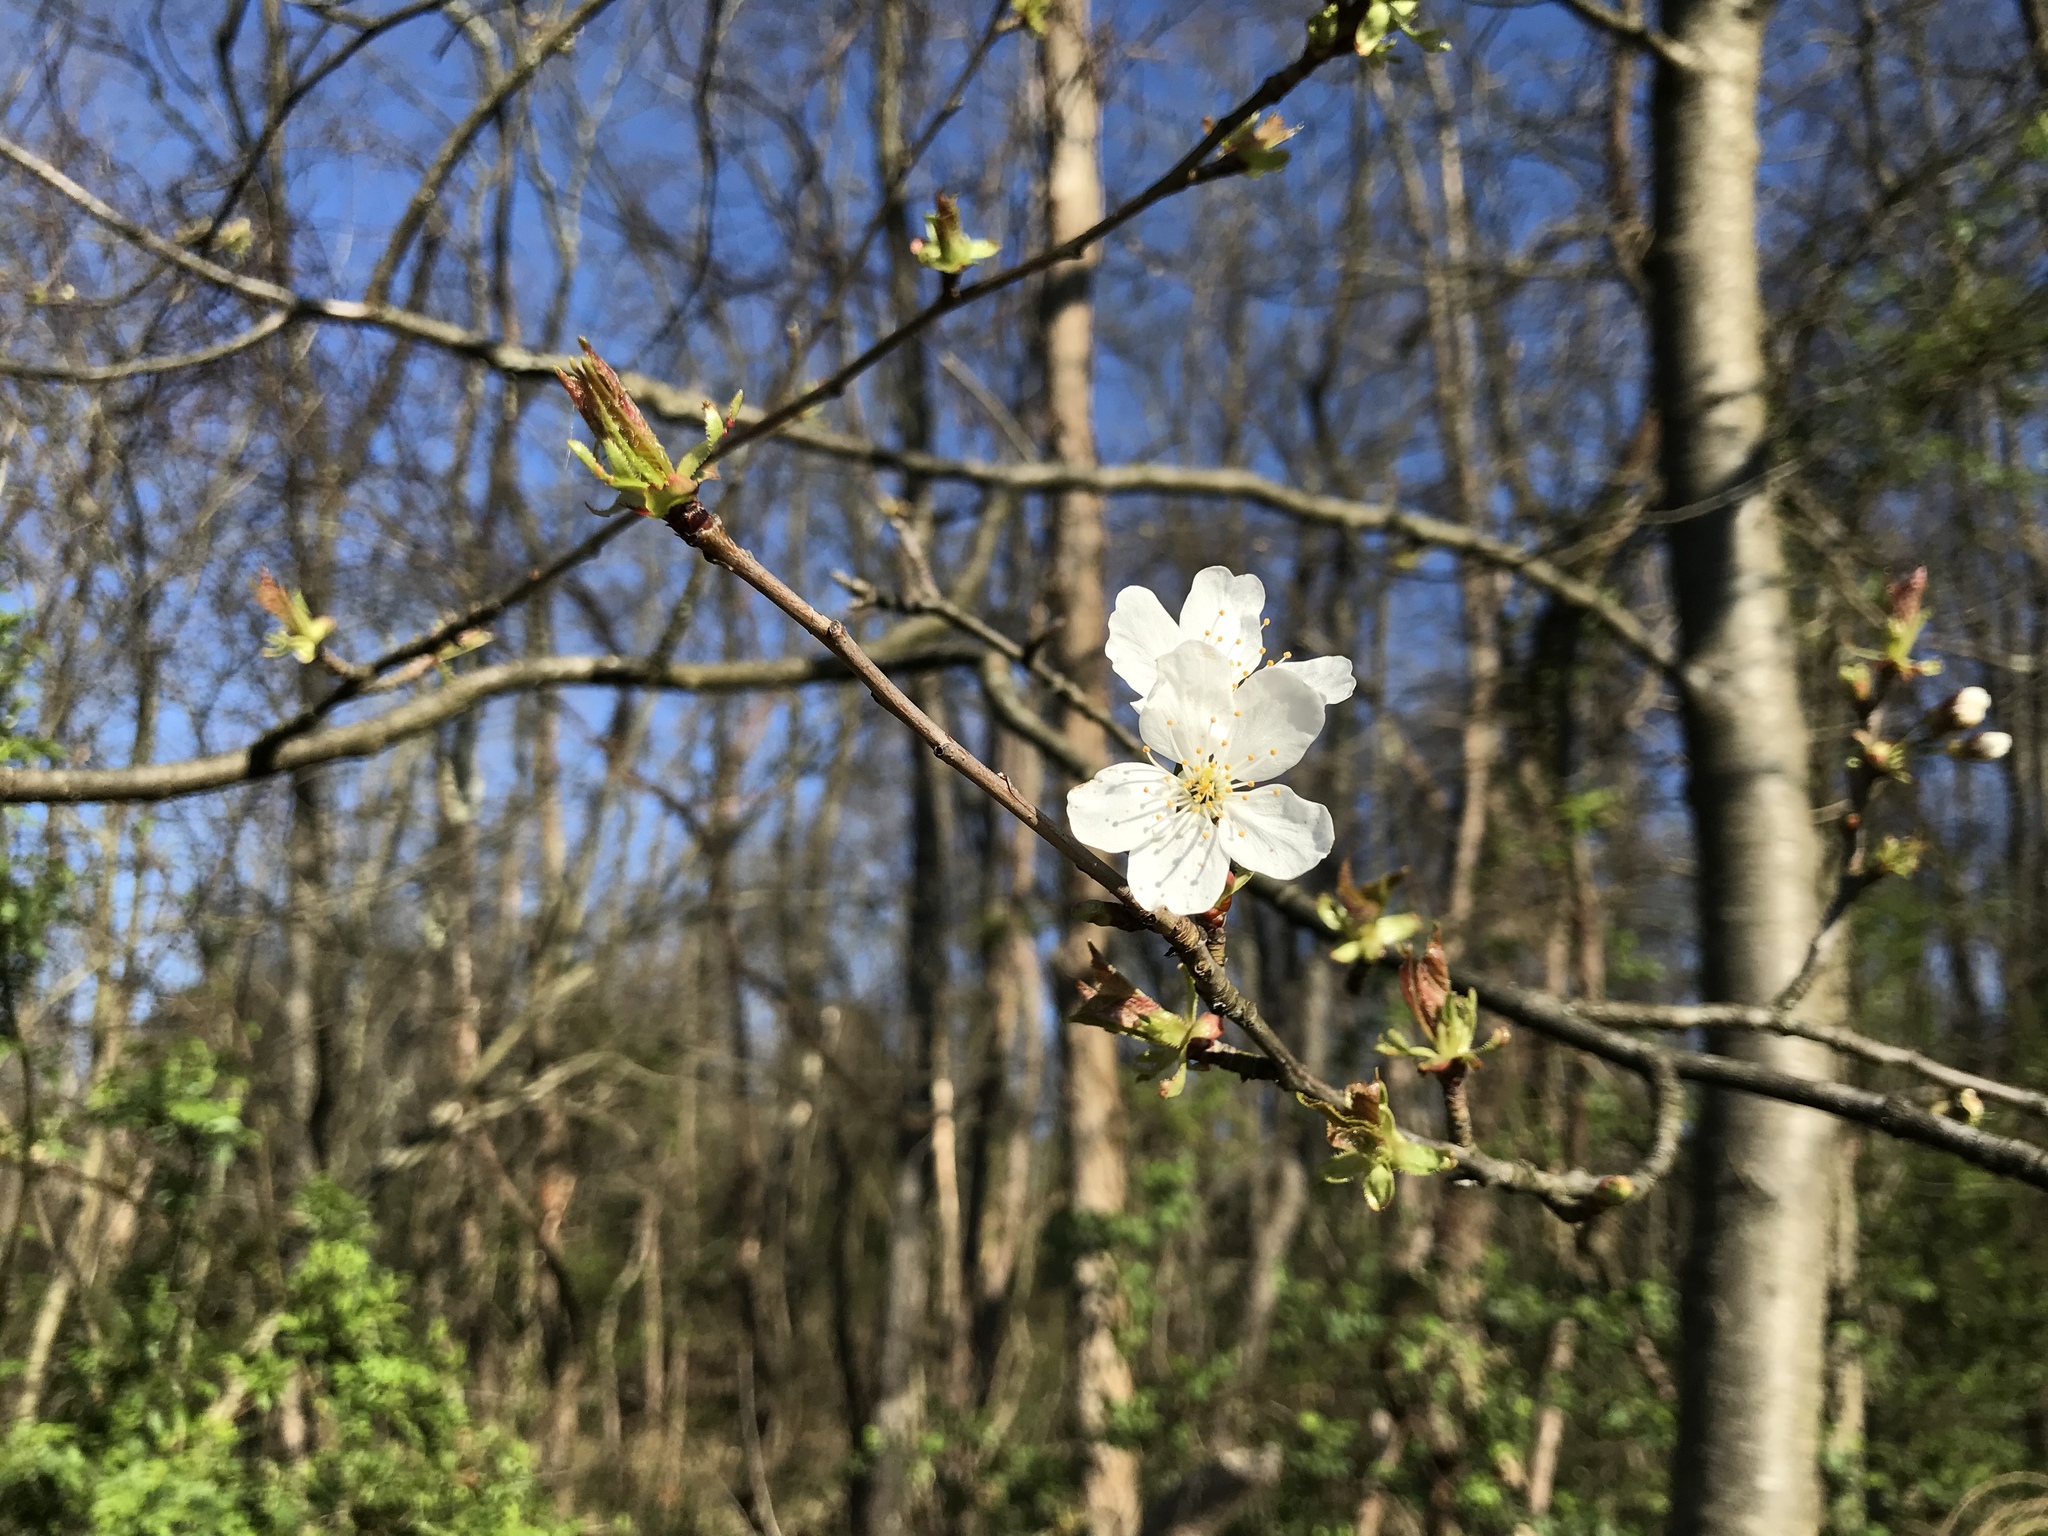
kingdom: Plantae
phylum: Tracheophyta
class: Magnoliopsida
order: Rosales
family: Rosaceae
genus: Prunus
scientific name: Prunus avium
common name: Sweet cherry
